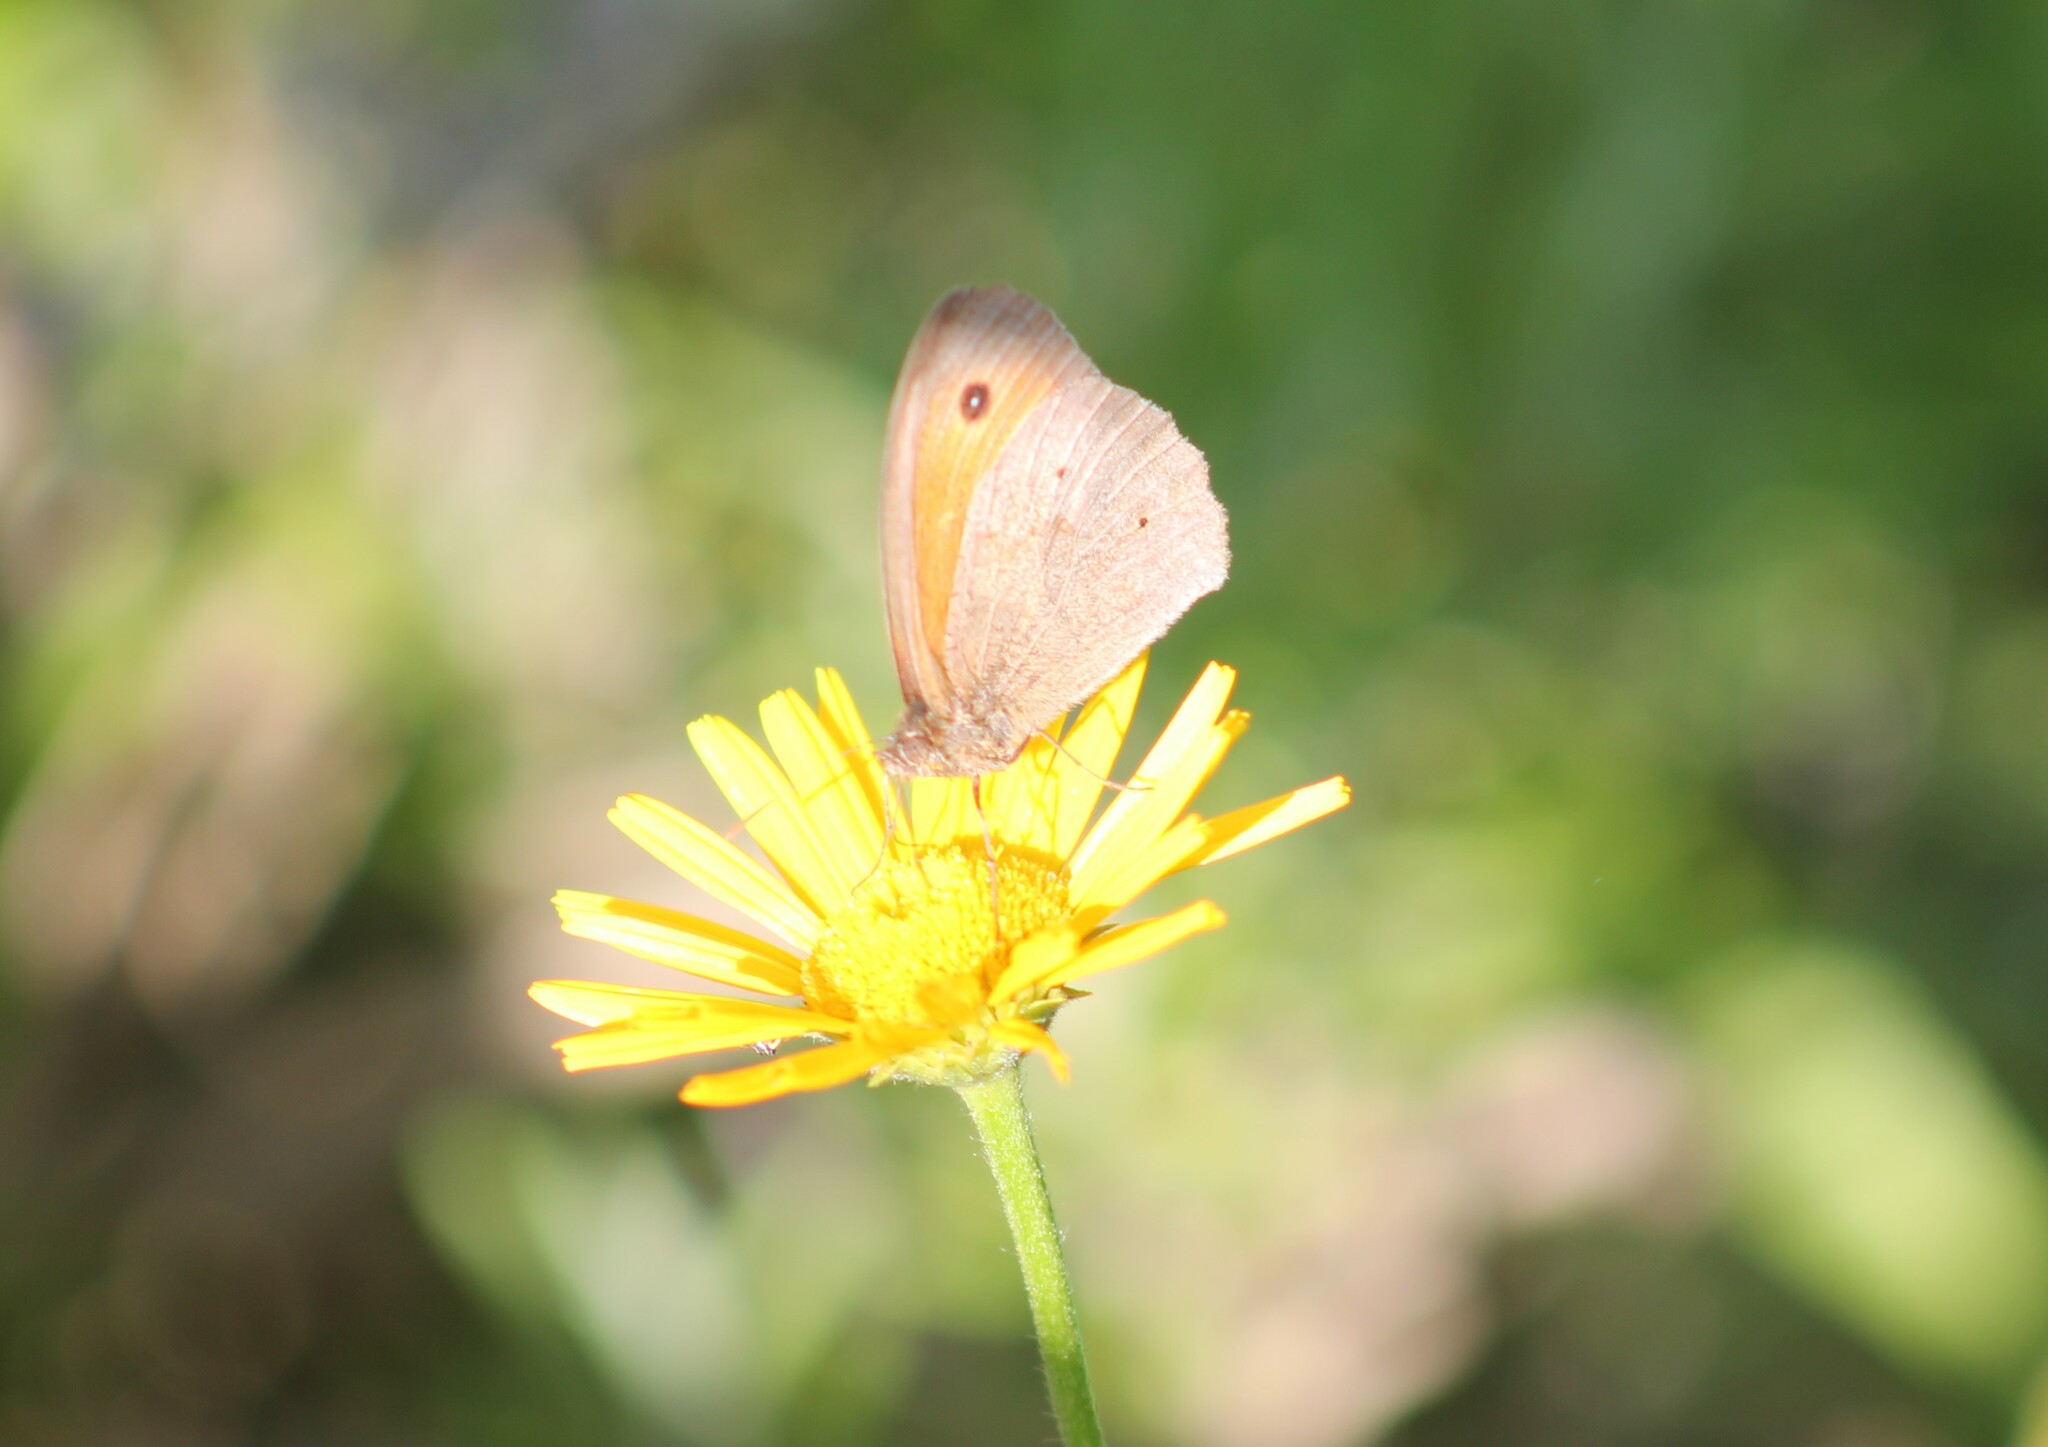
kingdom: Animalia
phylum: Arthropoda
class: Insecta
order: Lepidoptera
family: Nymphalidae
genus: Maniola
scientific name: Maniola jurtina
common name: Meadow brown
